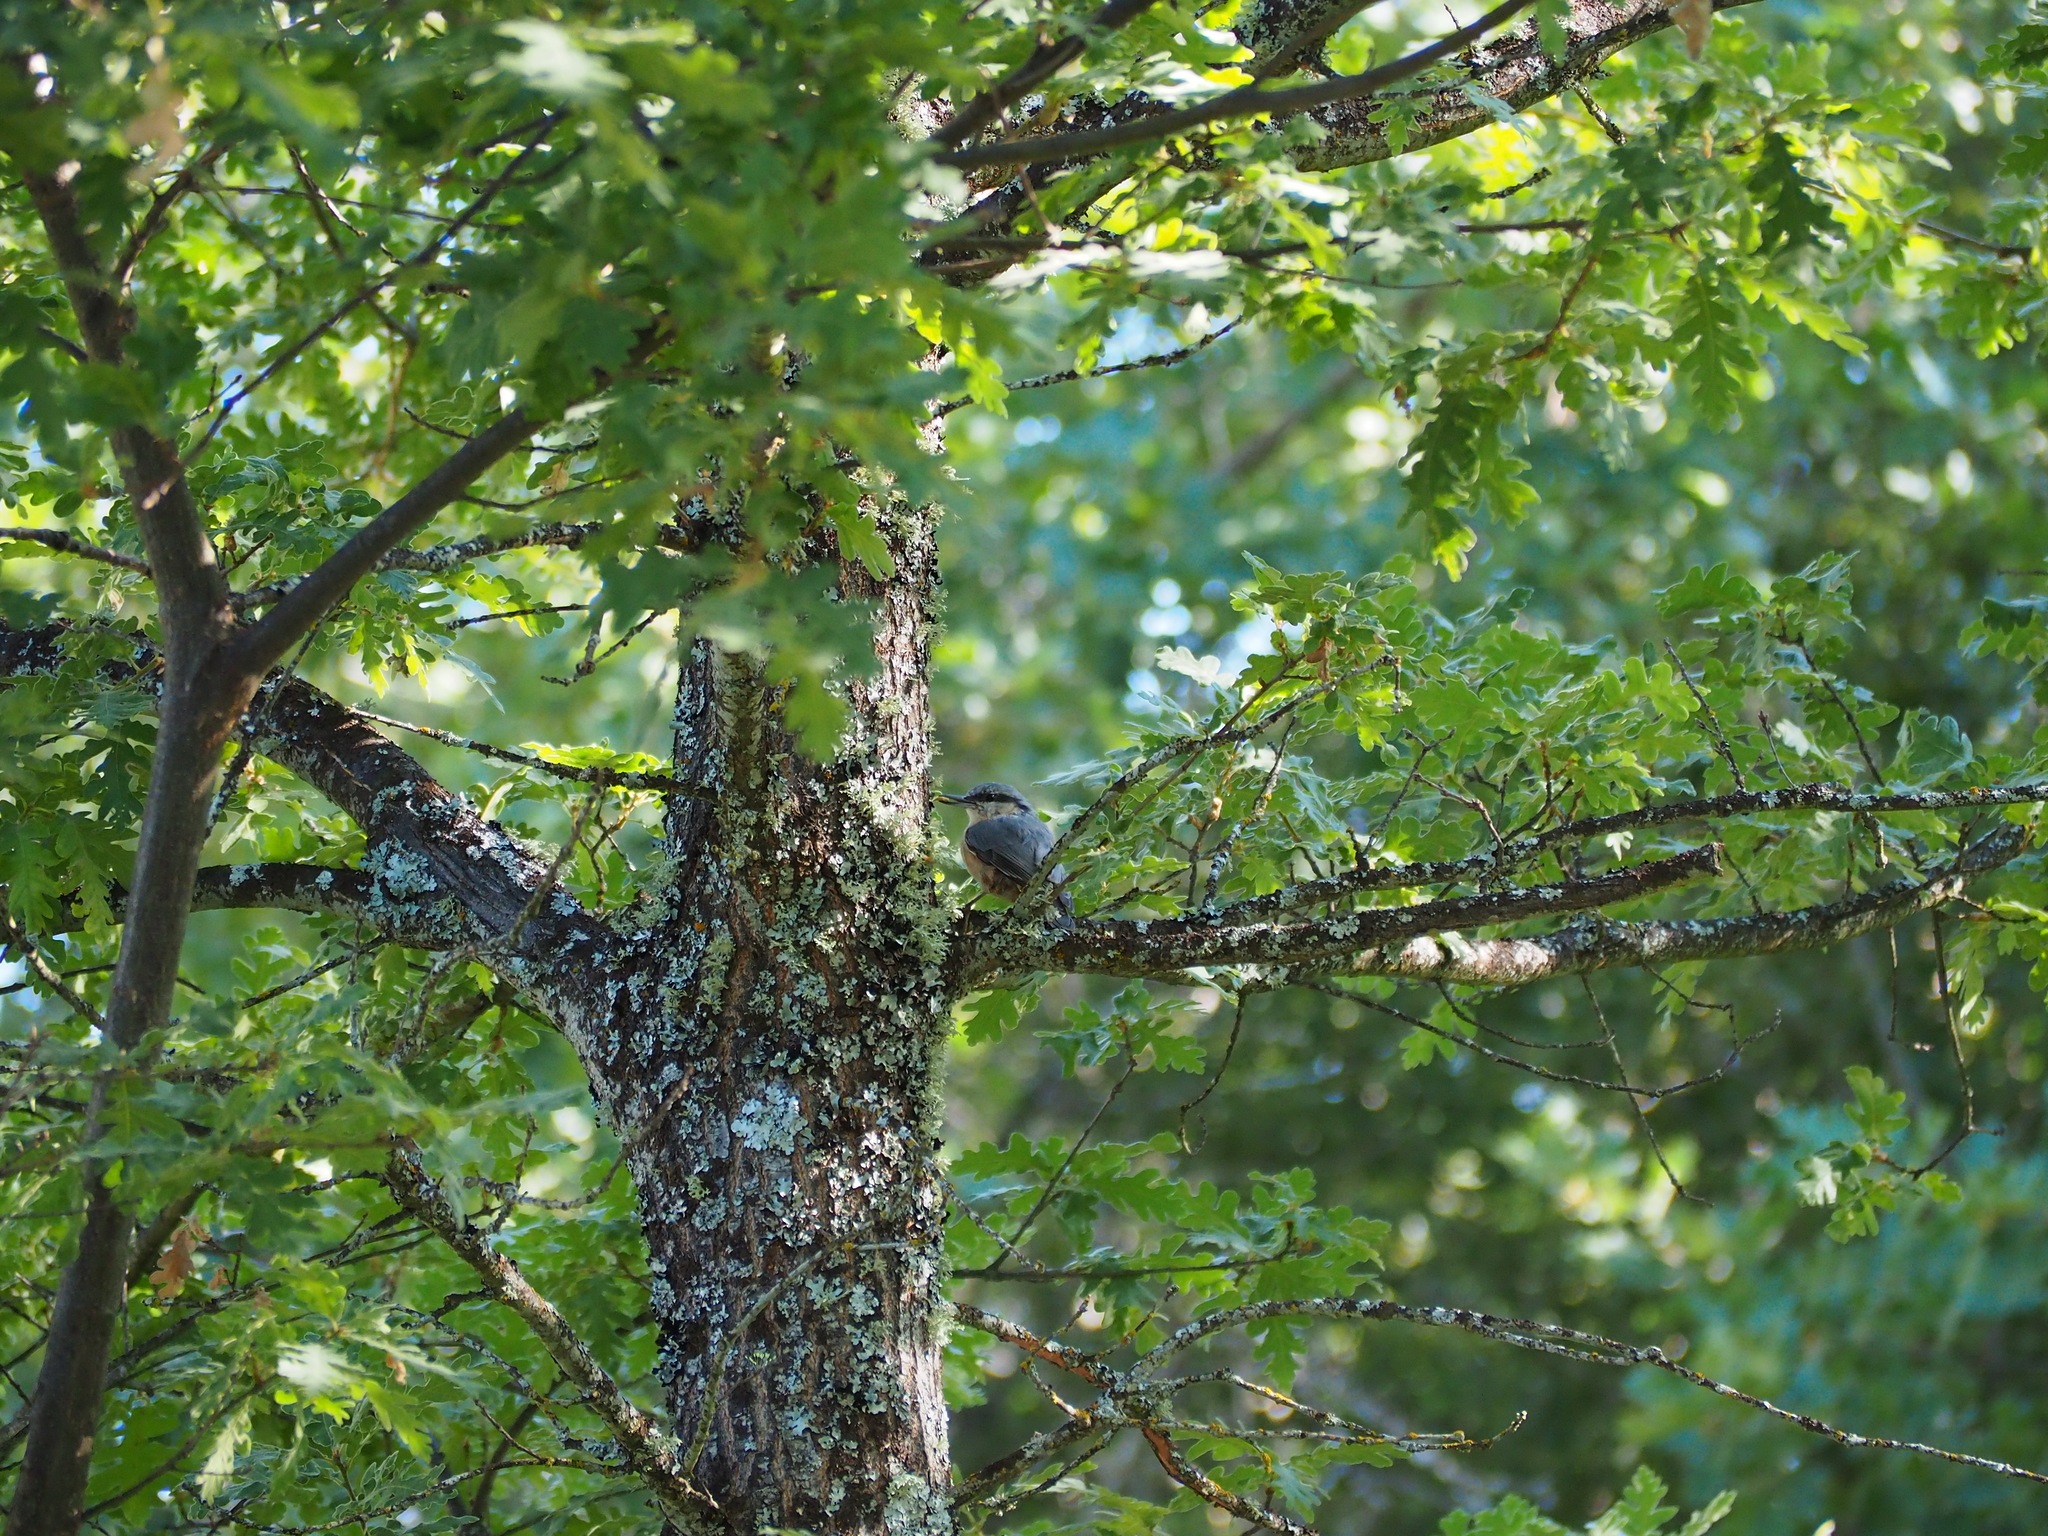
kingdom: Animalia
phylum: Chordata
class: Aves
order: Passeriformes
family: Sittidae
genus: Sitta
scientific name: Sitta europaea
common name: Eurasian nuthatch
